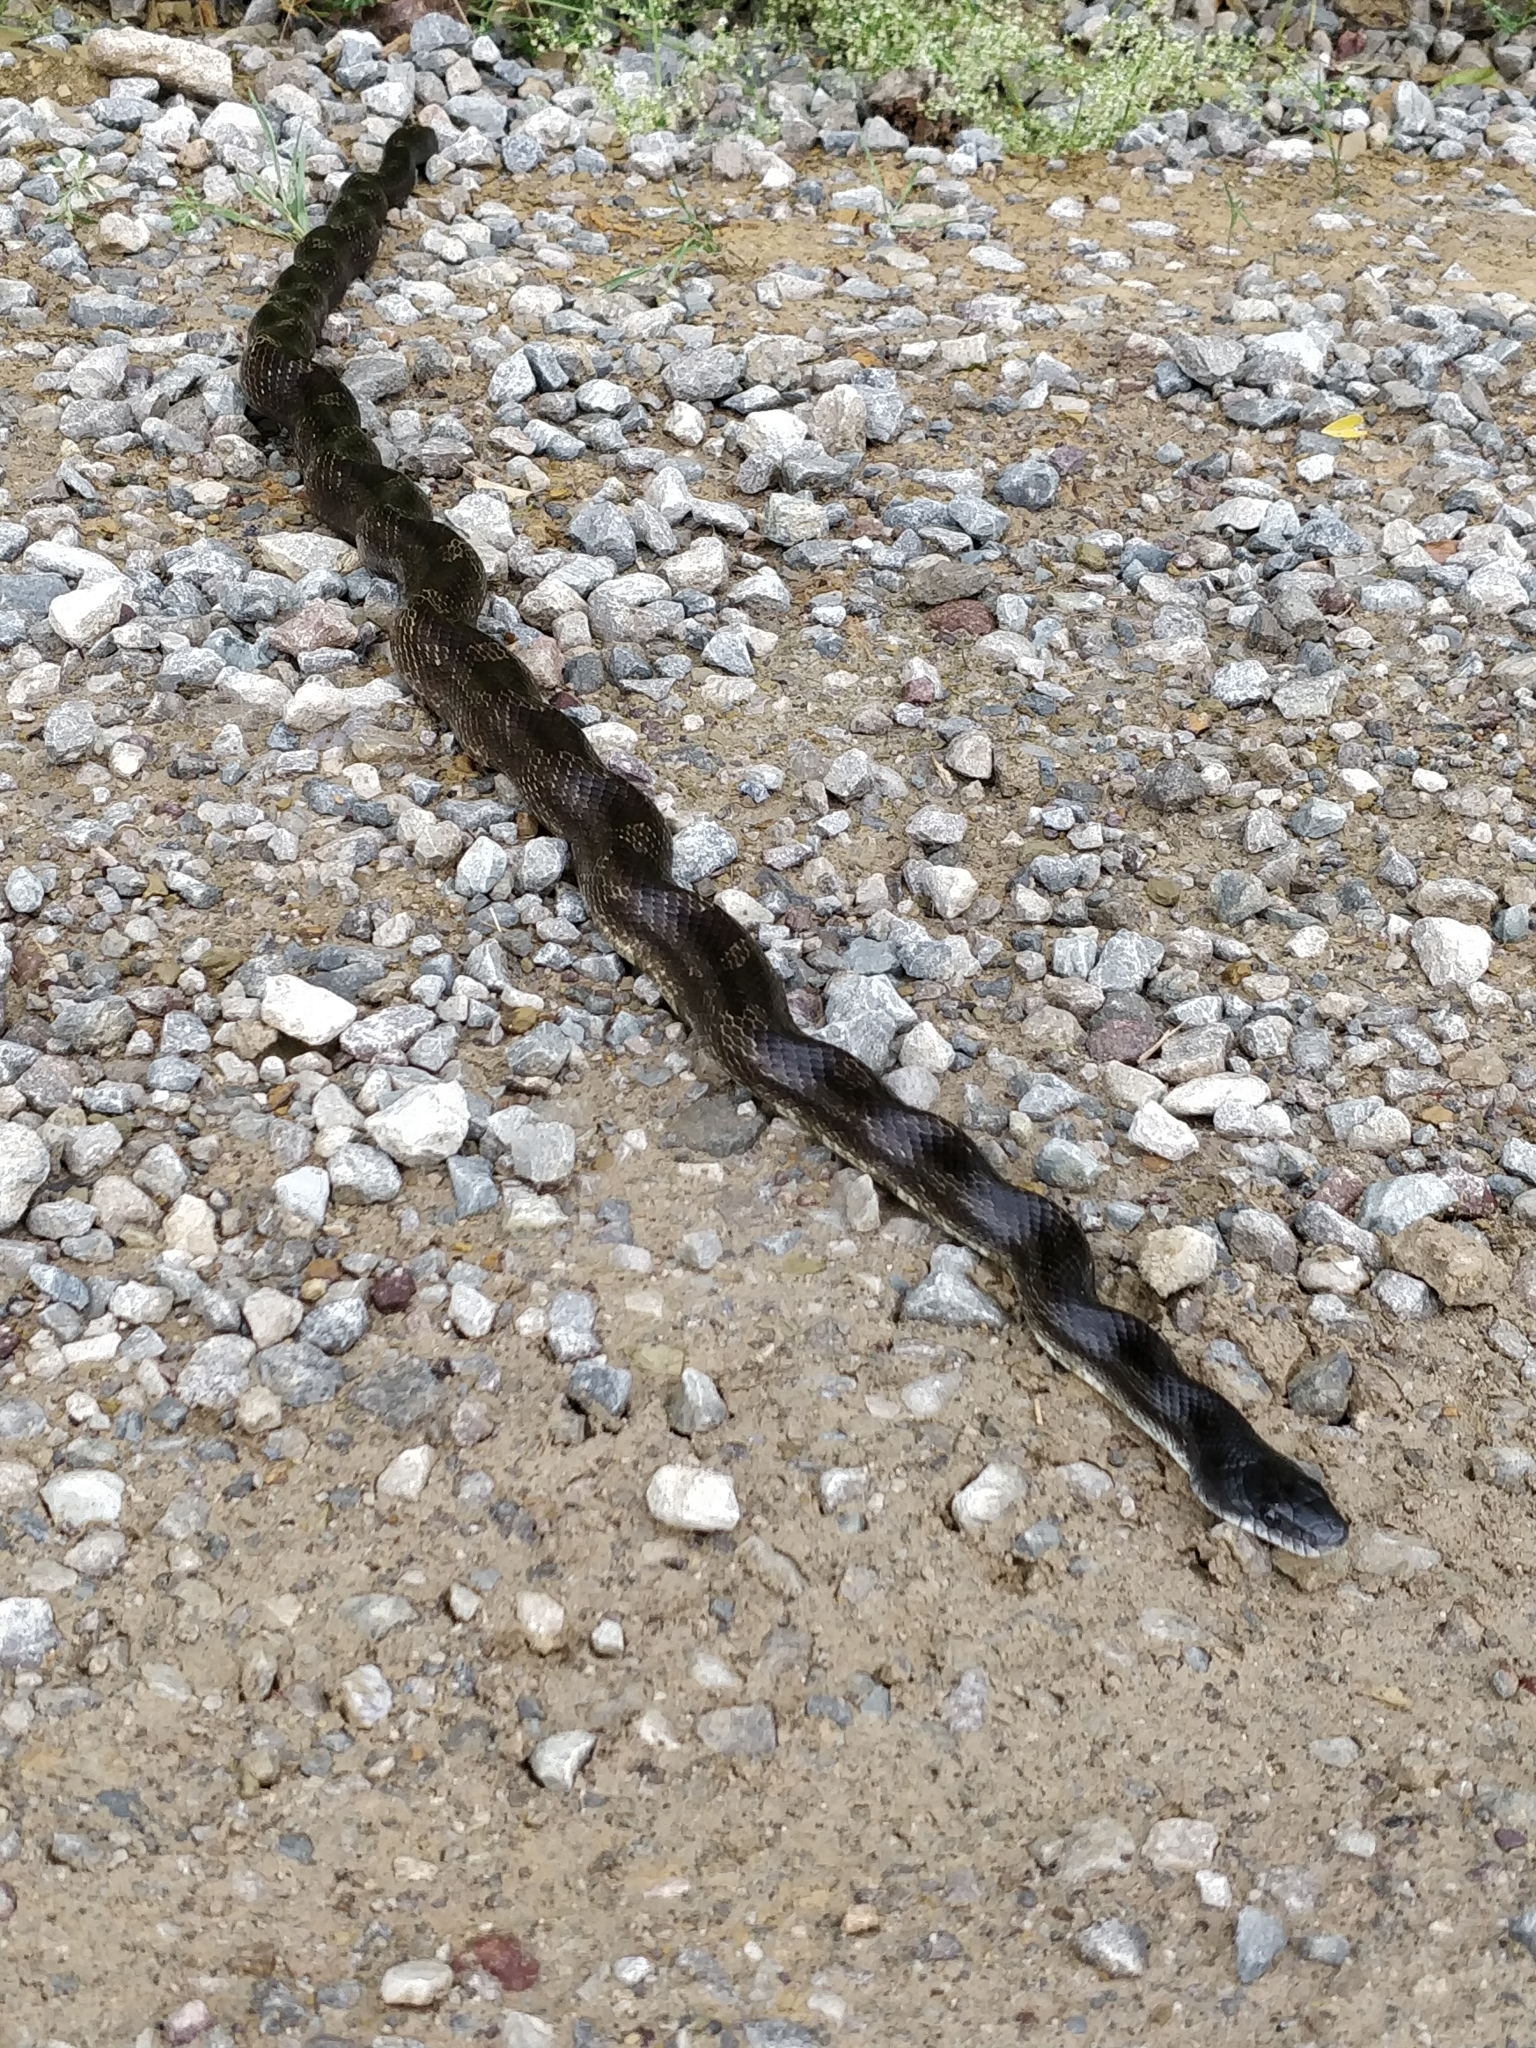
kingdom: Animalia
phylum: Chordata
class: Squamata
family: Colubridae
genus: Pantherophis
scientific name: Pantherophis spiloides
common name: Gray rat snake
